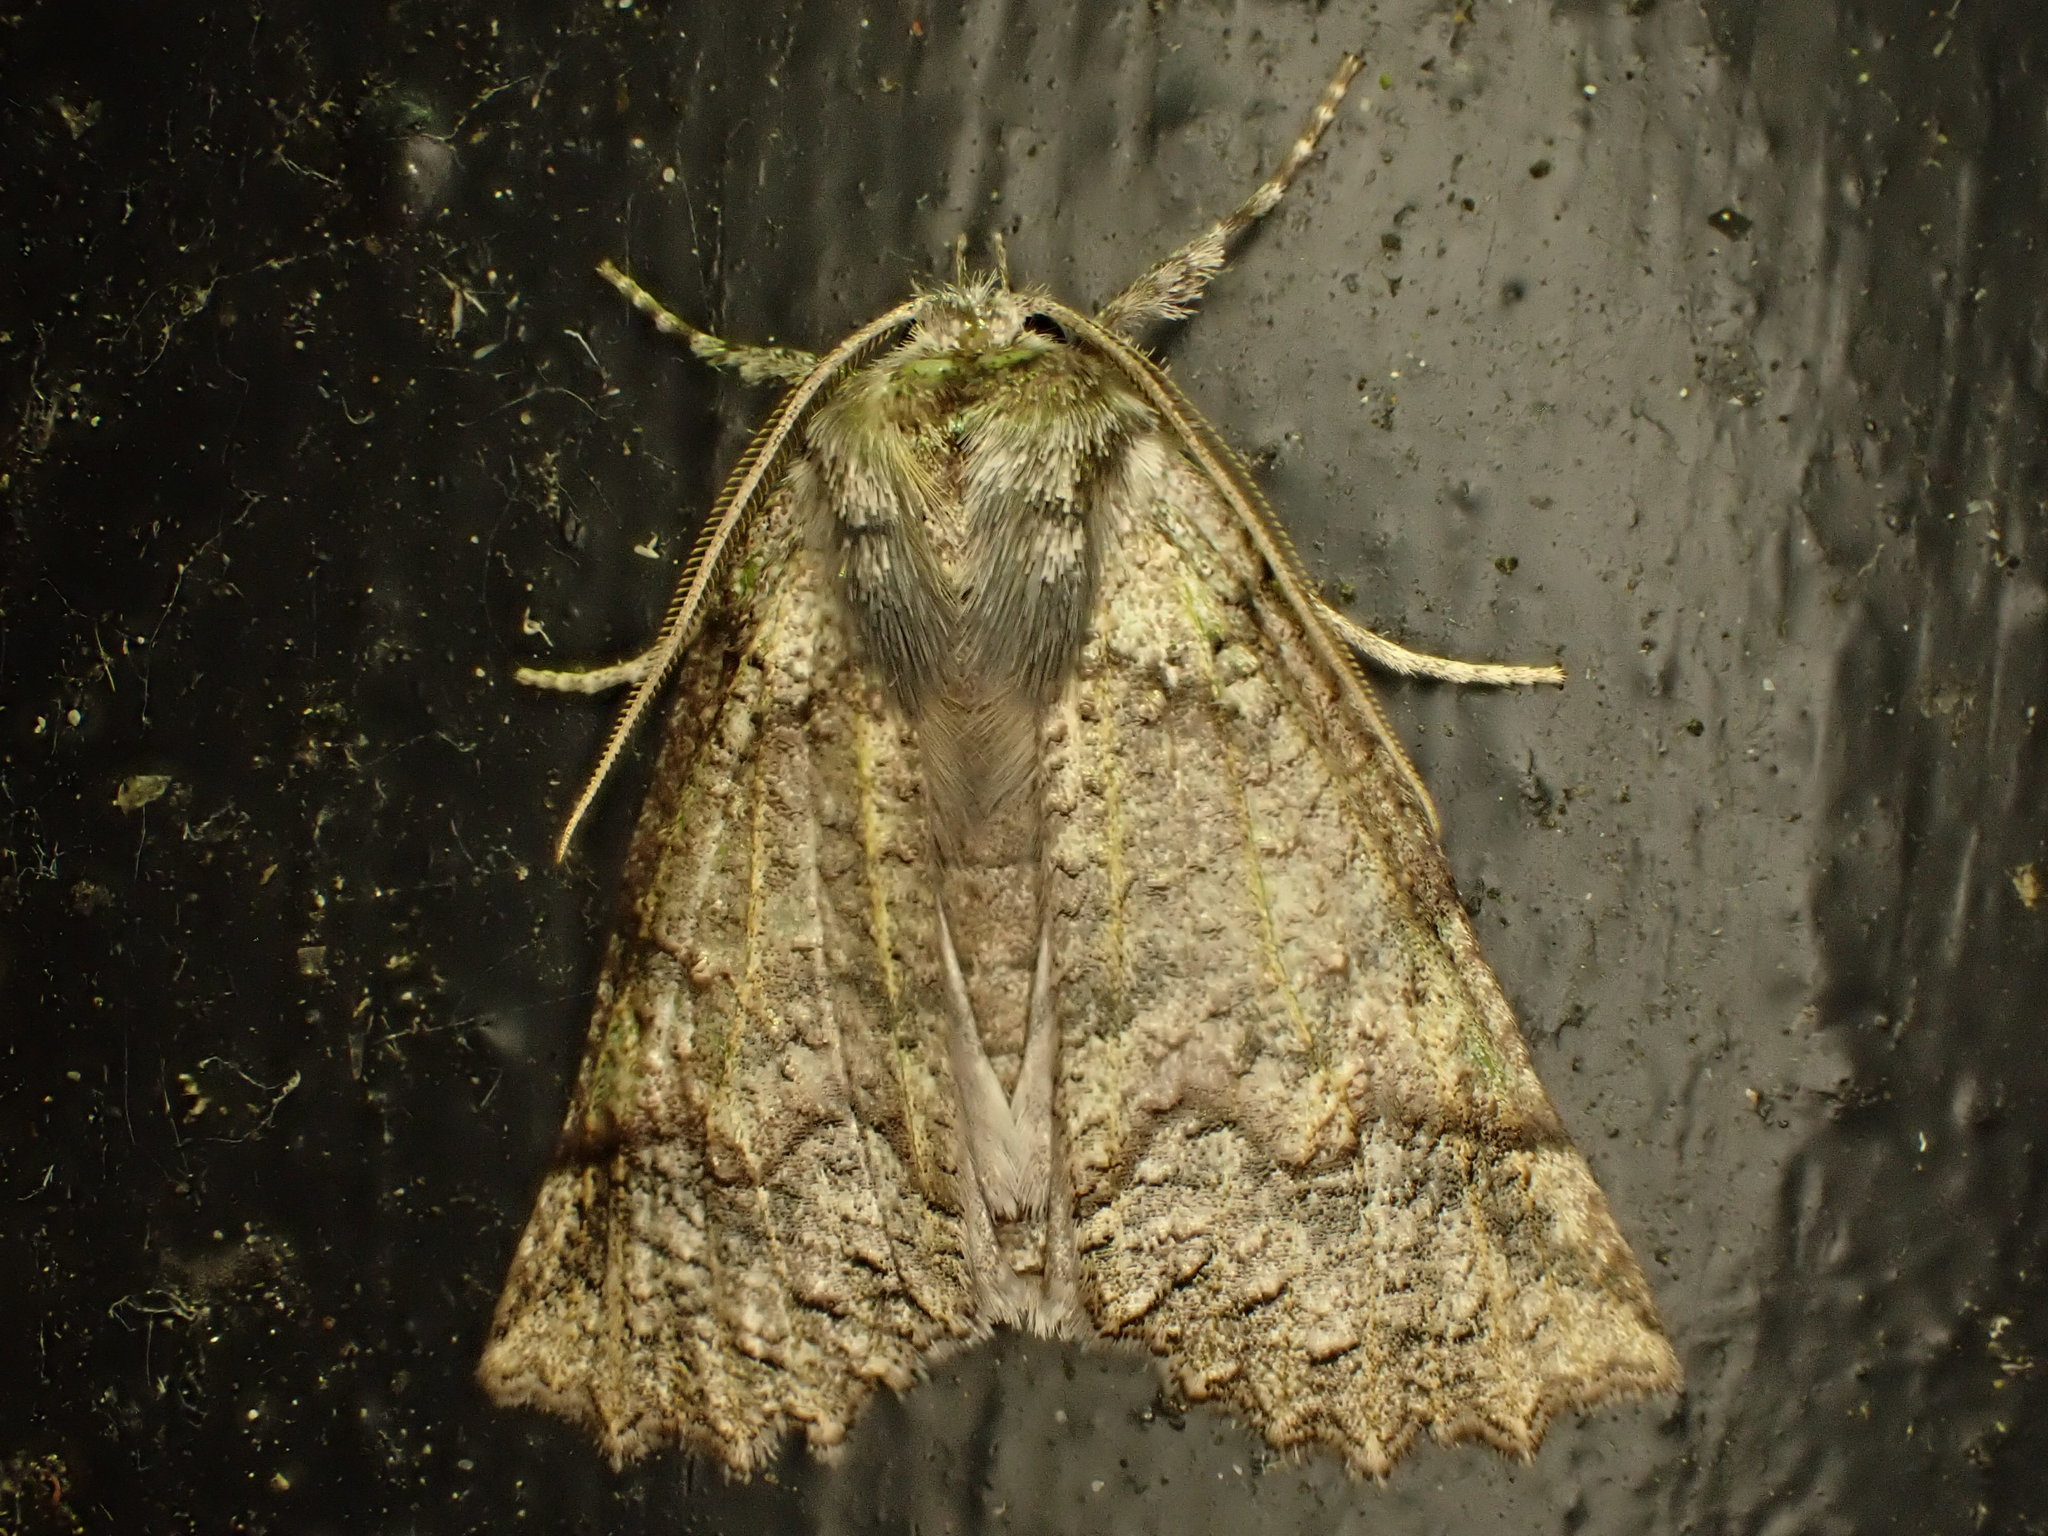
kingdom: Animalia
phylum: Arthropoda
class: Insecta
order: Lepidoptera
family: Geometridae
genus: Declana
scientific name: Declana floccosa
